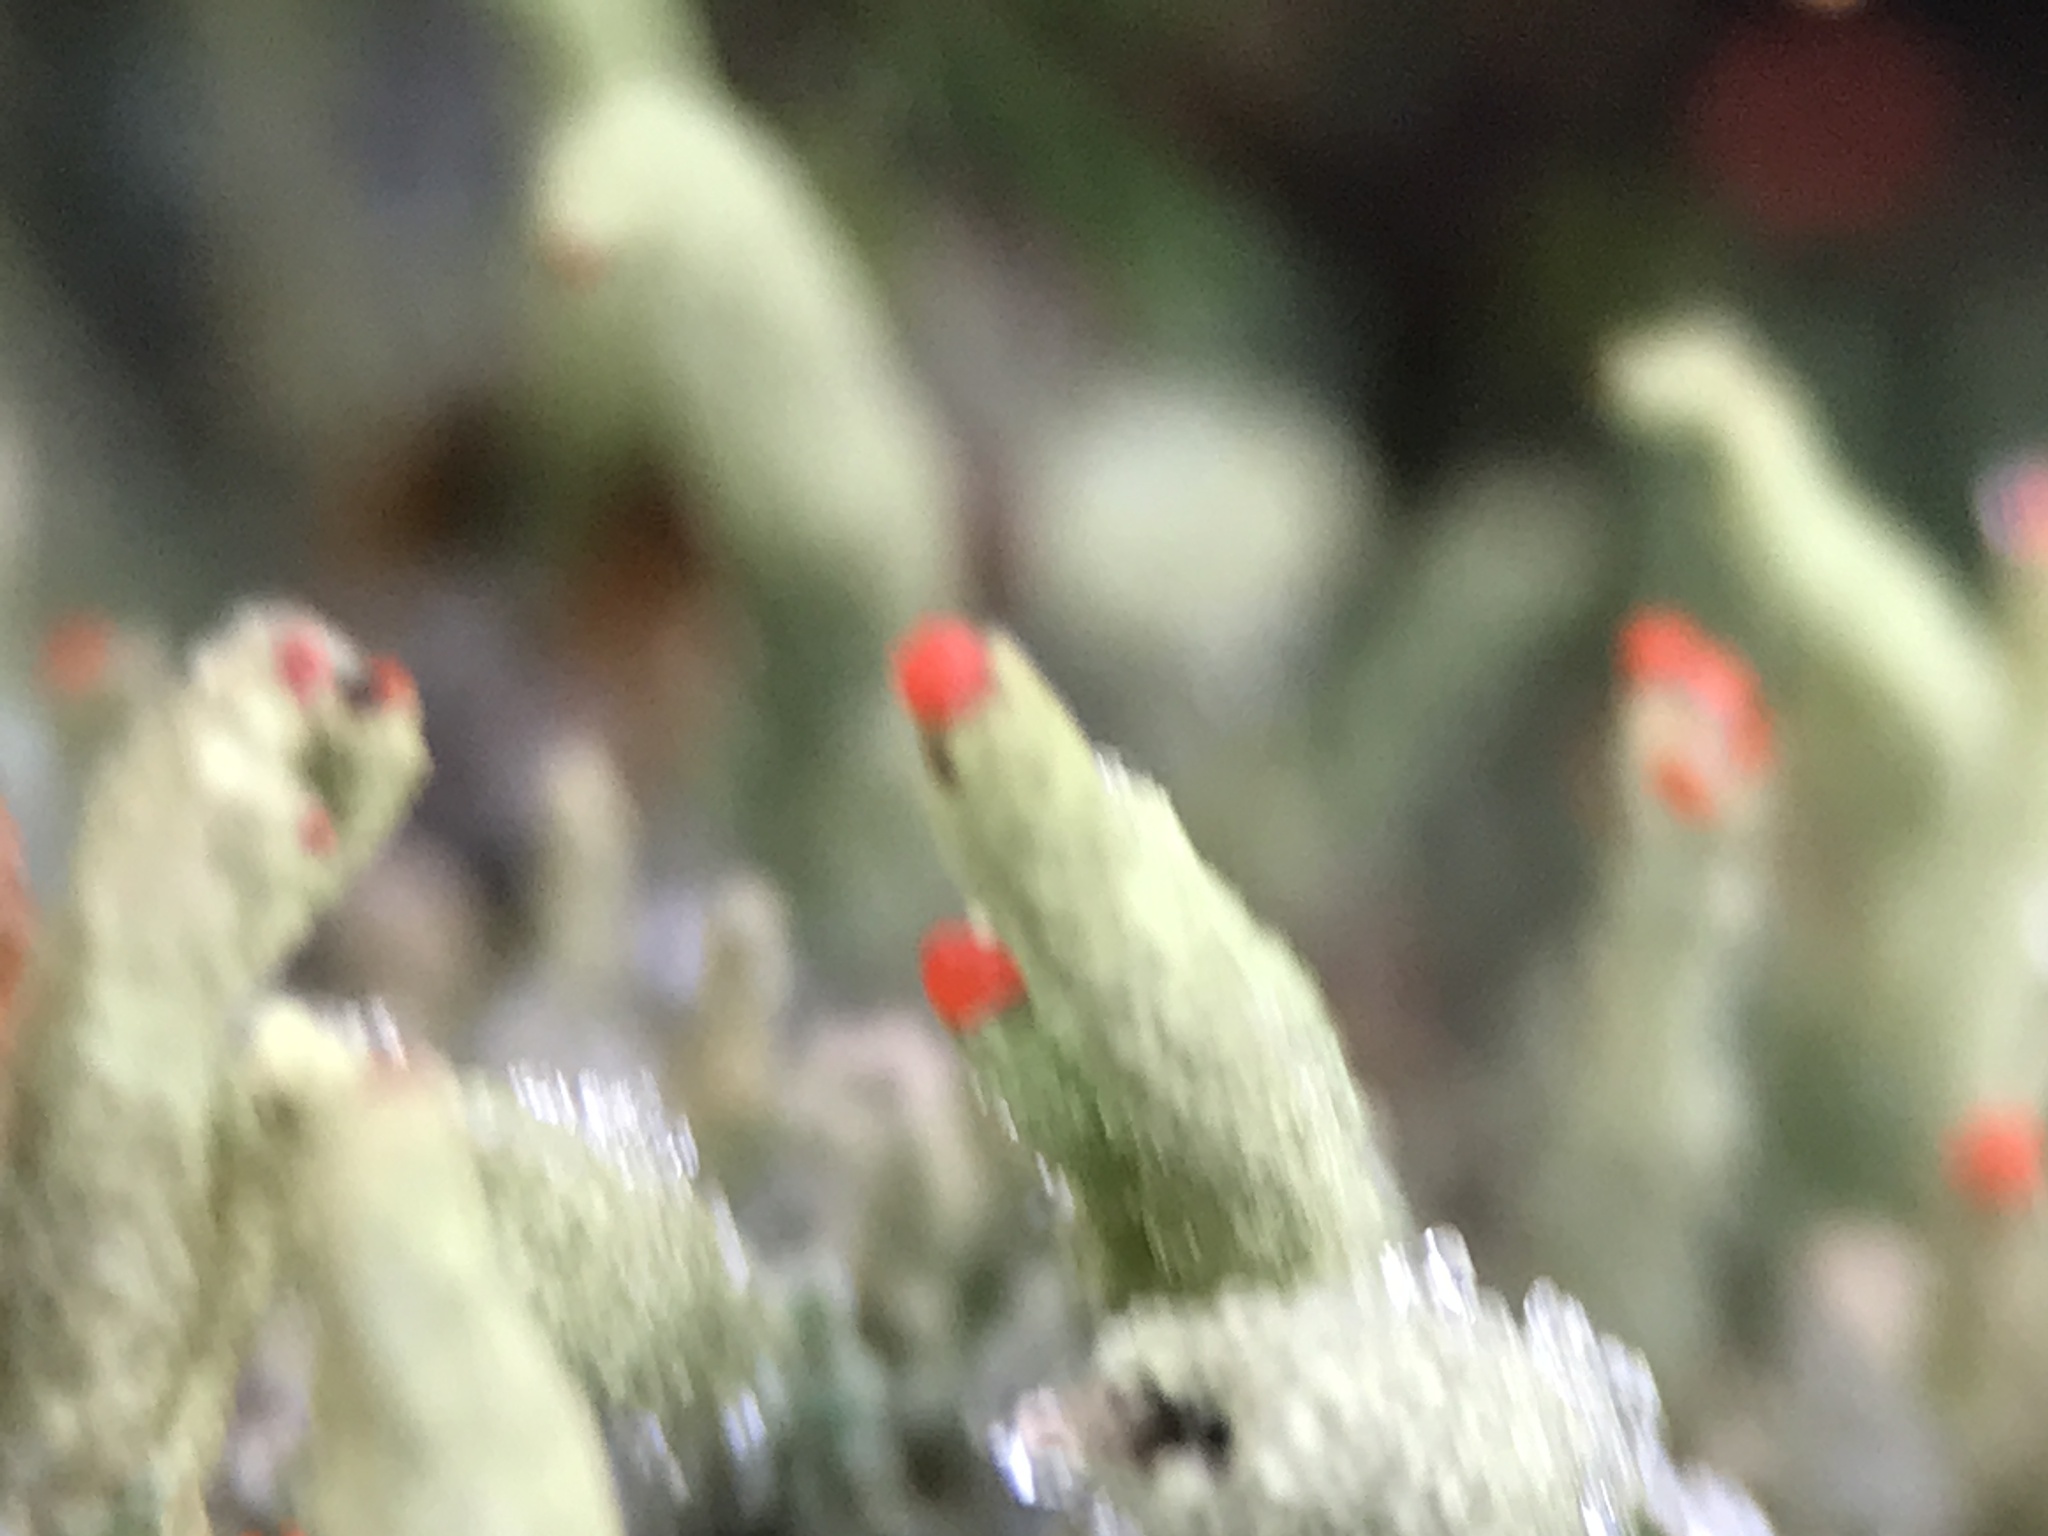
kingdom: Fungi
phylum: Ascomycota
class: Lecanoromycetes
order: Lecanorales
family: Cladoniaceae
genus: Cladonia
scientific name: Cladonia macilenta
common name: Lipstick powderhorn
